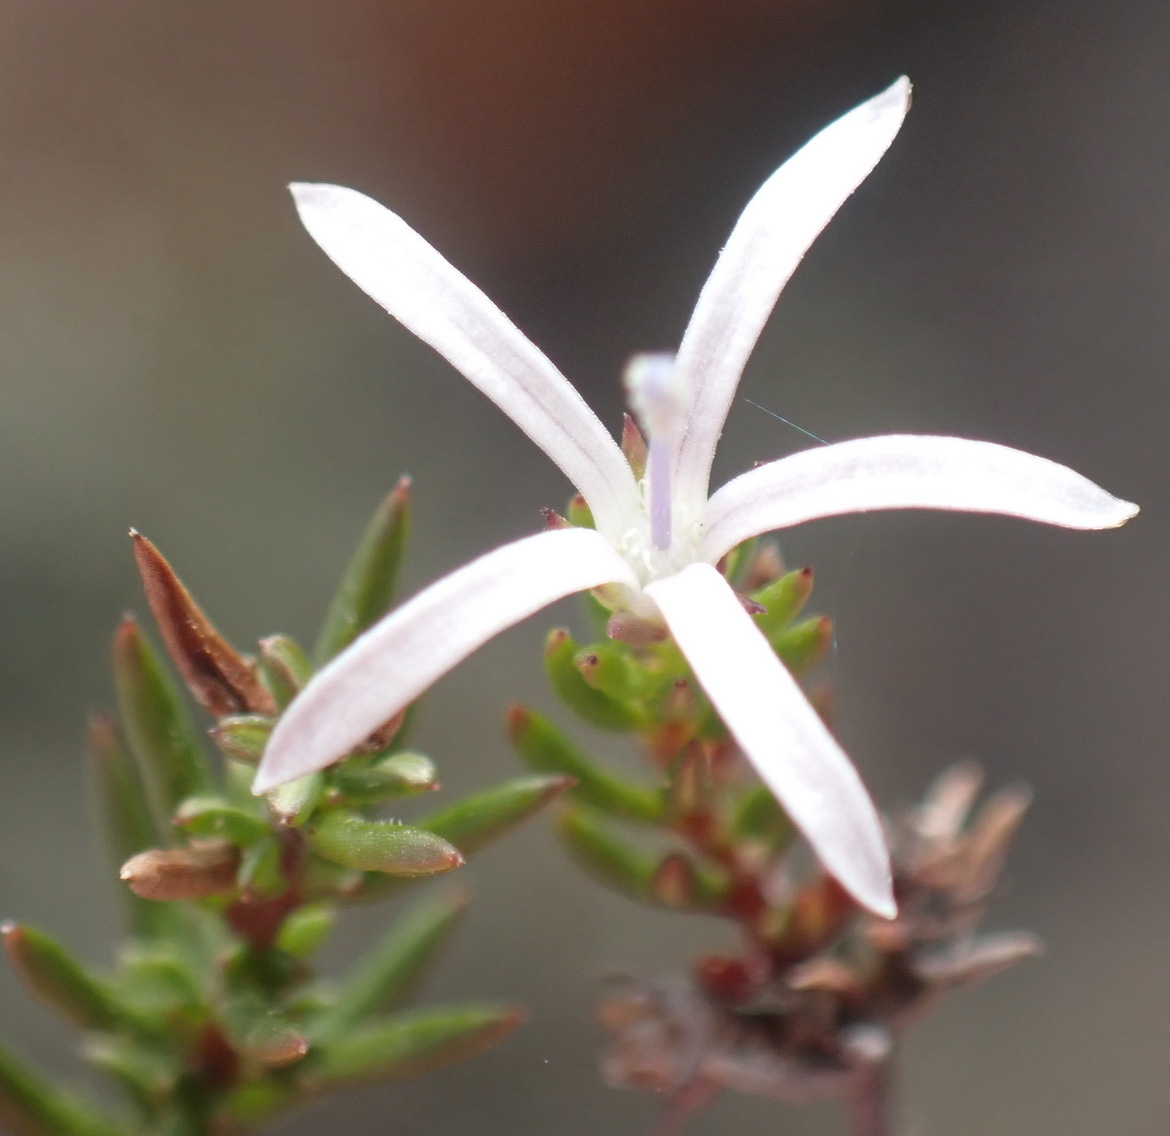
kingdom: Plantae
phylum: Tracheophyta
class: Magnoliopsida
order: Asterales
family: Campanulaceae
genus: Wahlenbergia
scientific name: Wahlenbergia rubens
